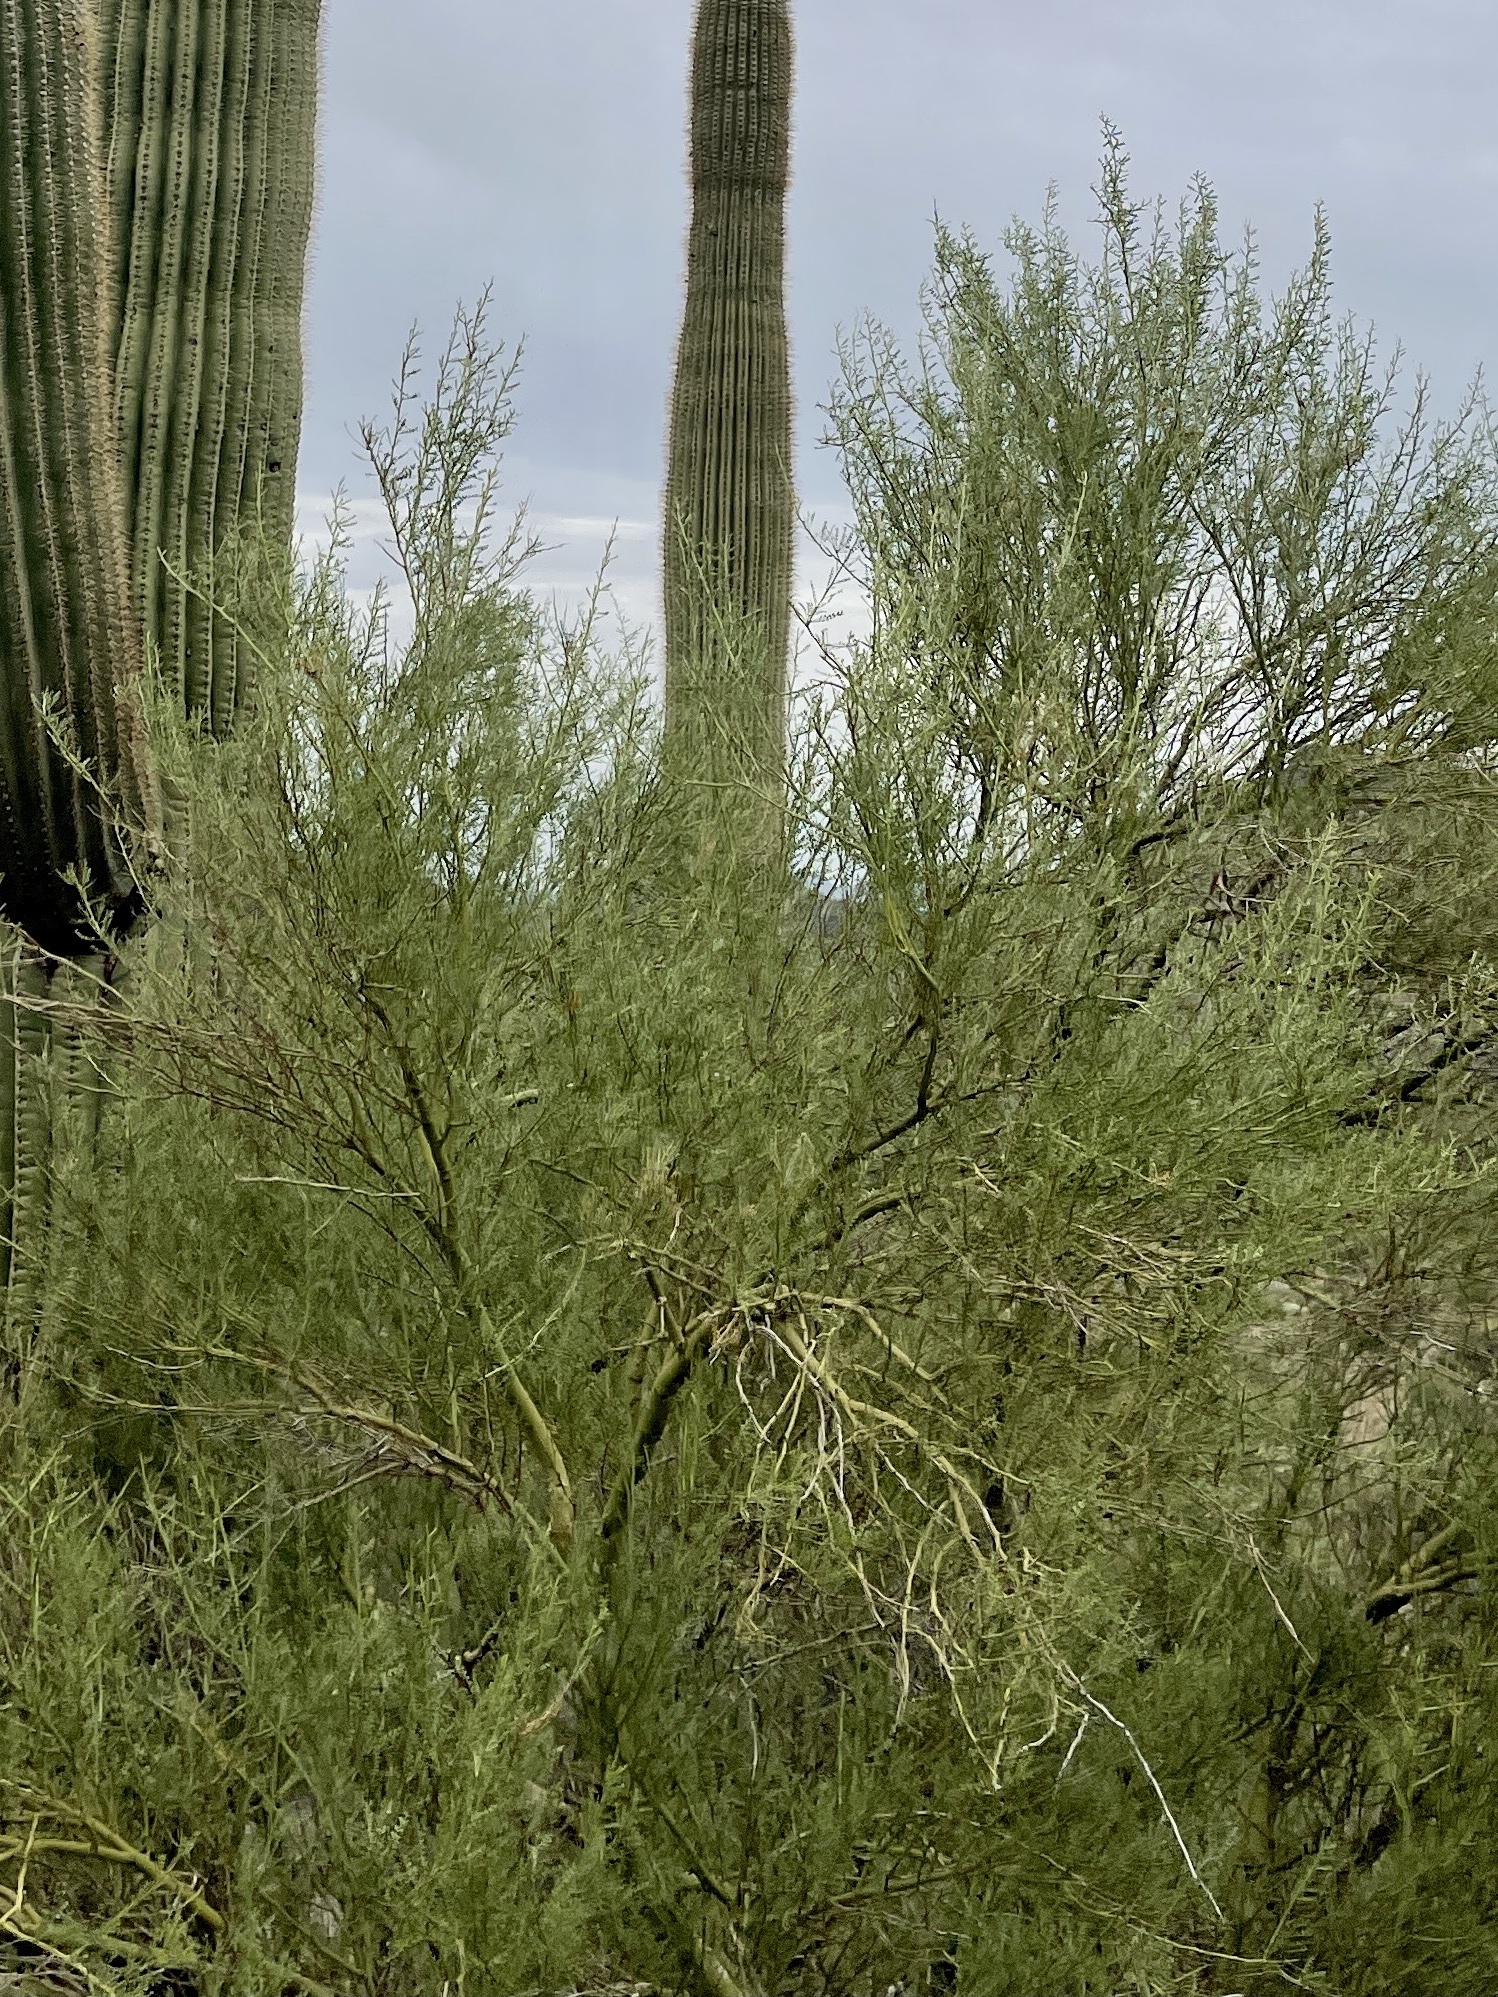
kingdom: Plantae
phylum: Tracheophyta
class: Magnoliopsida
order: Fabales
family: Fabaceae
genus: Parkinsonia
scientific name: Parkinsonia microphylla
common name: Yellow paloverde
